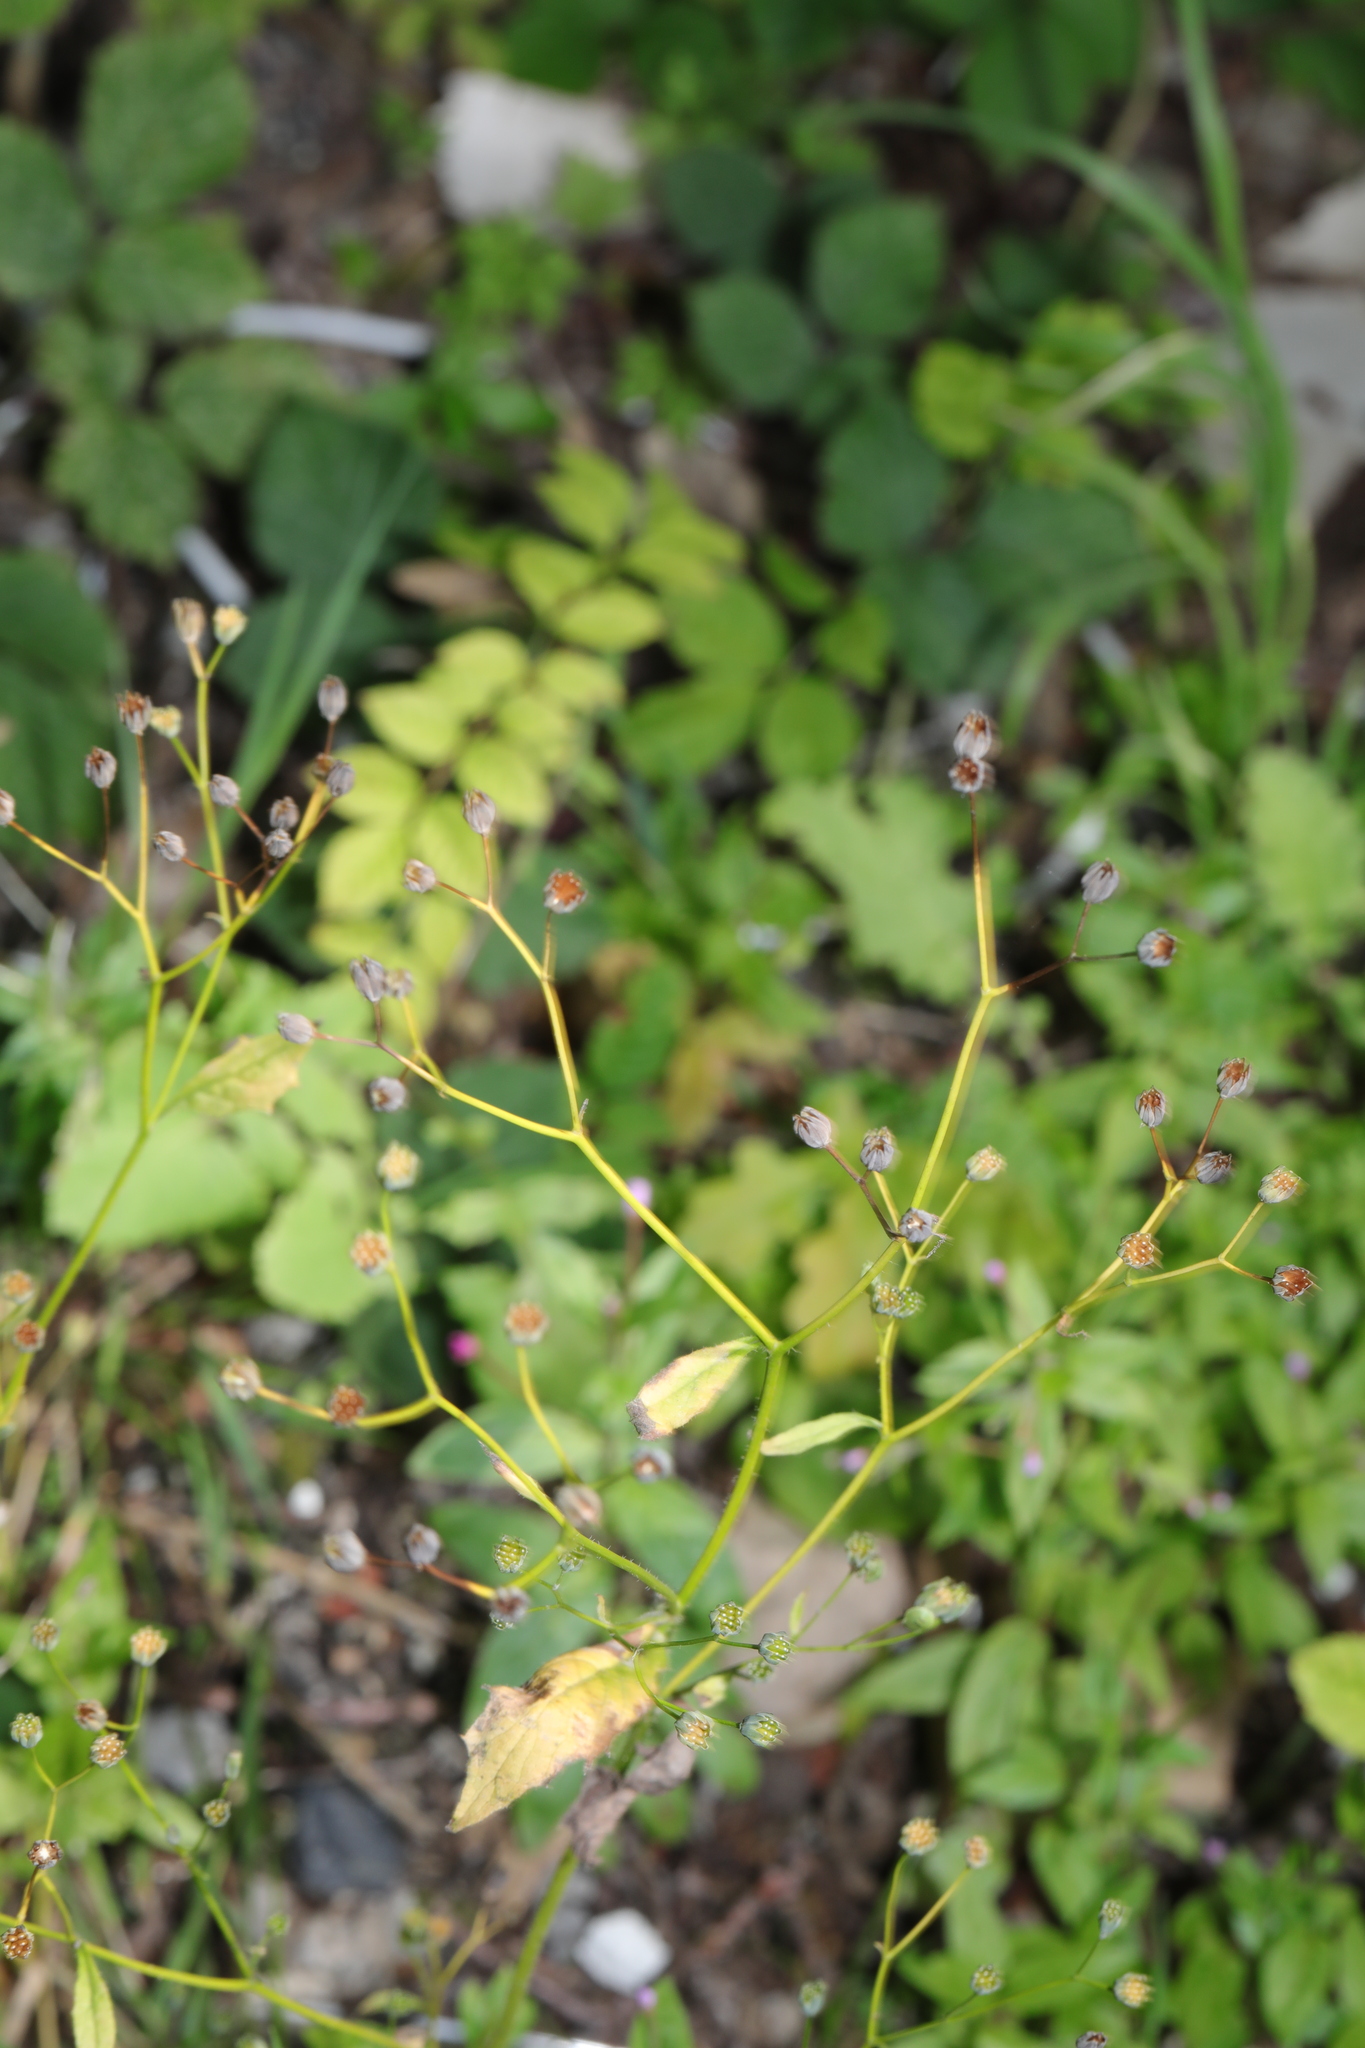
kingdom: Plantae
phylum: Tracheophyta
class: Magnoliopsida
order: Asterales
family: Asteraceae
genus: Lapsana
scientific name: Lapsana communis
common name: Nipplewort
